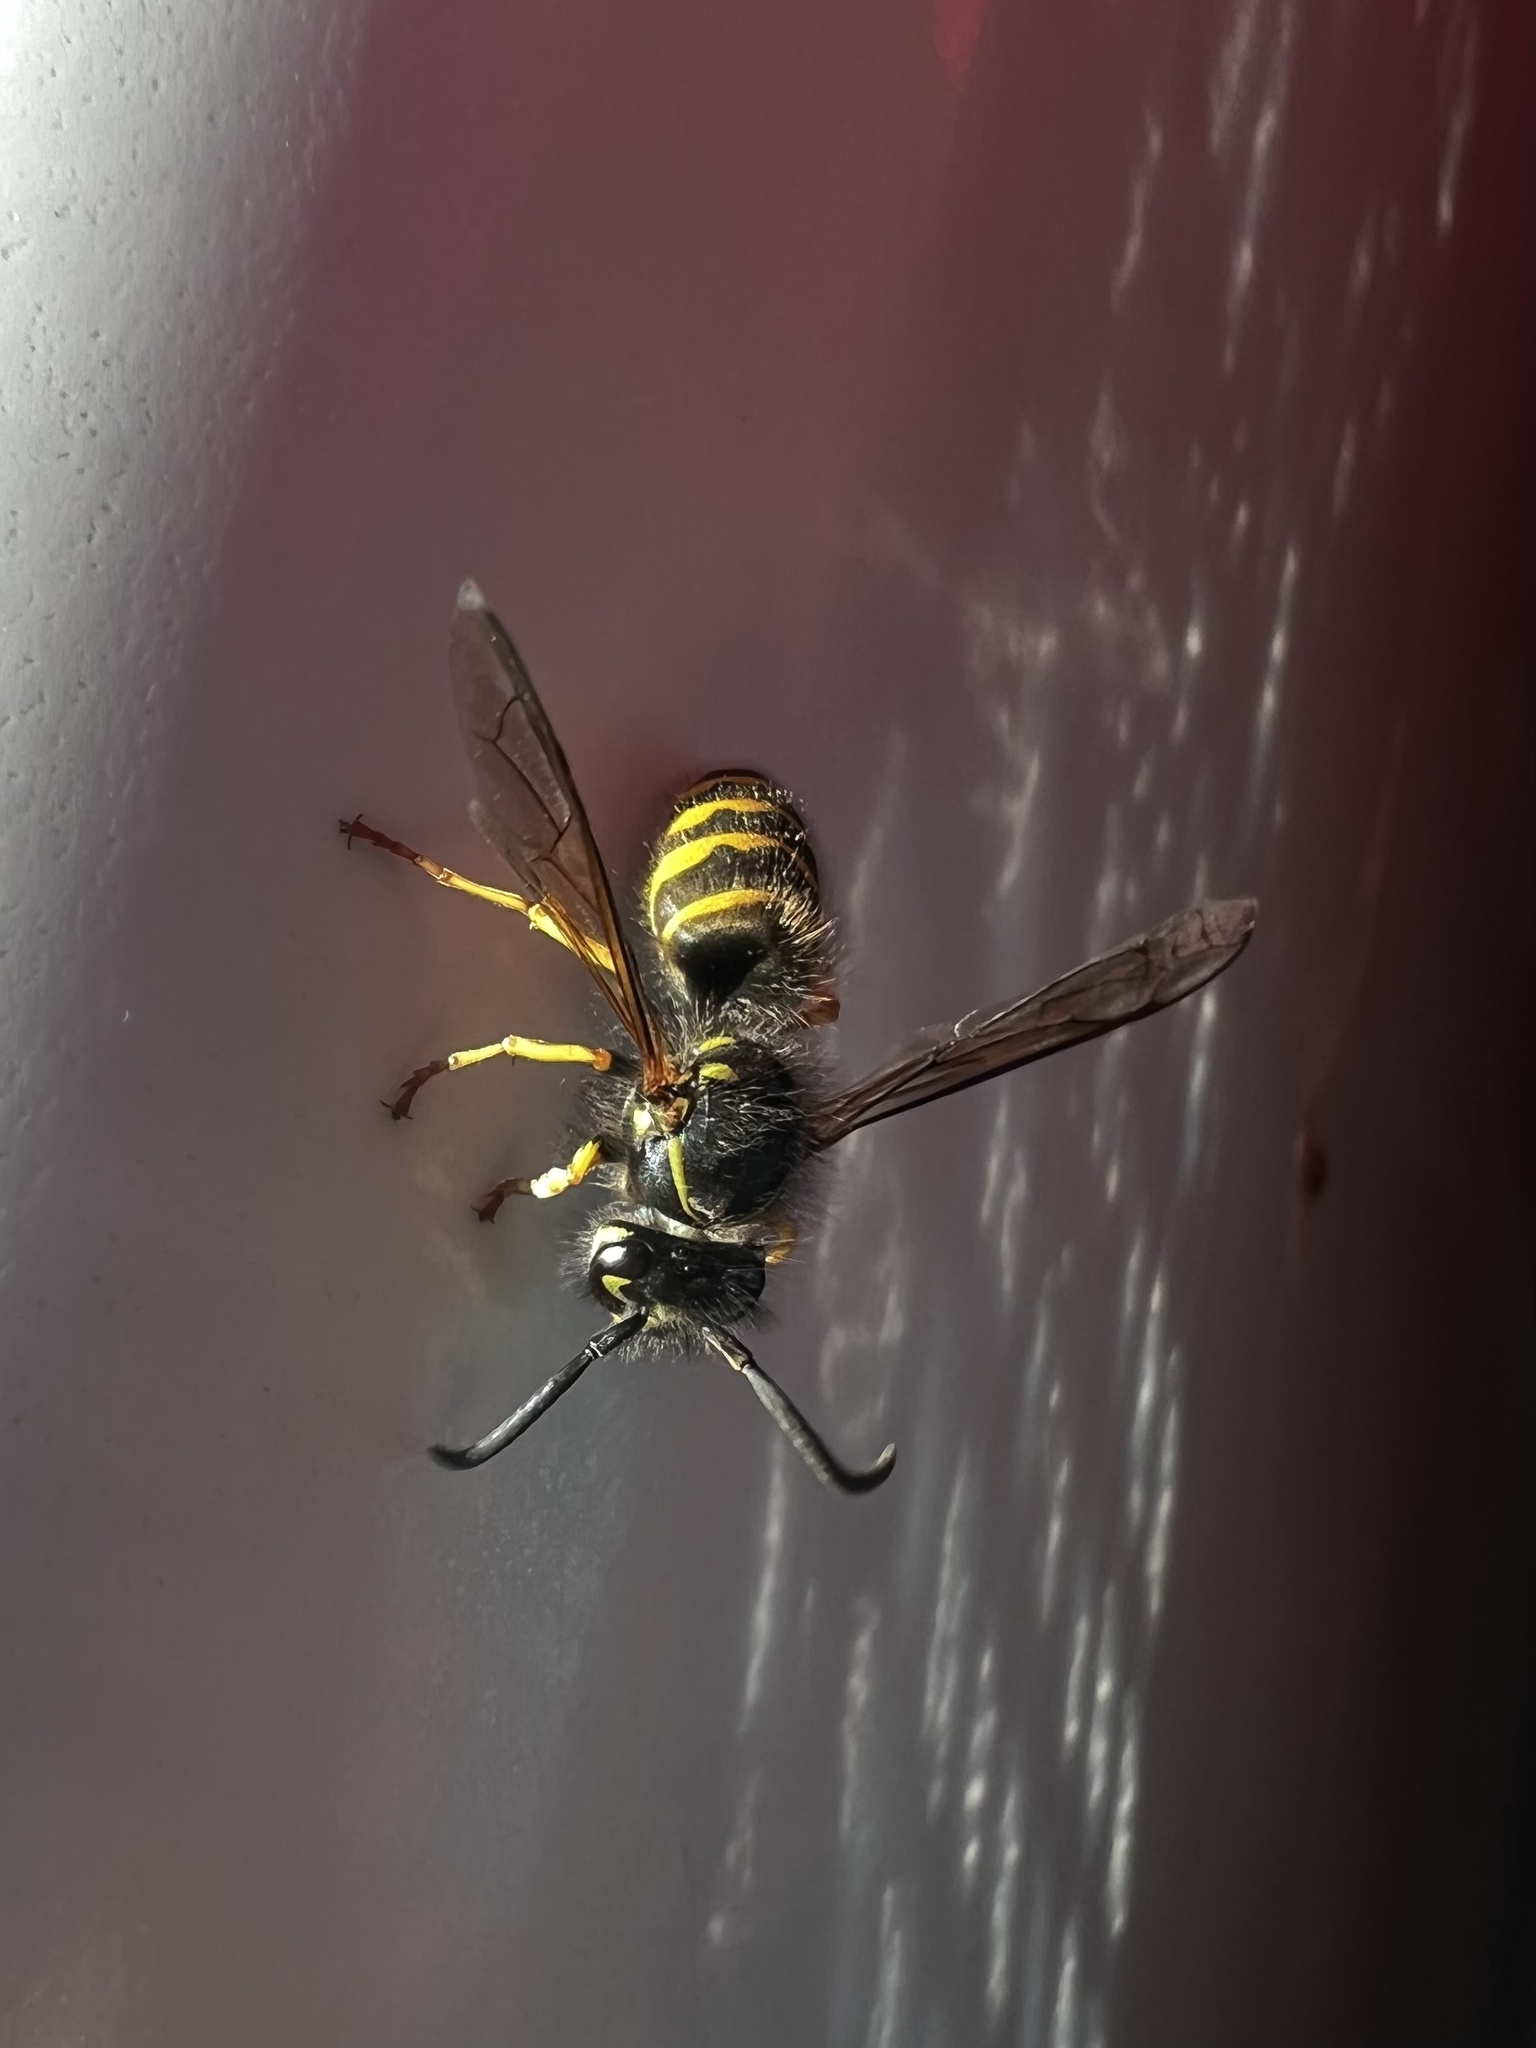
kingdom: Animalia
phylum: Arthropoda
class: Insecta
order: Hymenoptera
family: Vespidae
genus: Vespula
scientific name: Vespula alascensis
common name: Alaska yellowjacket
